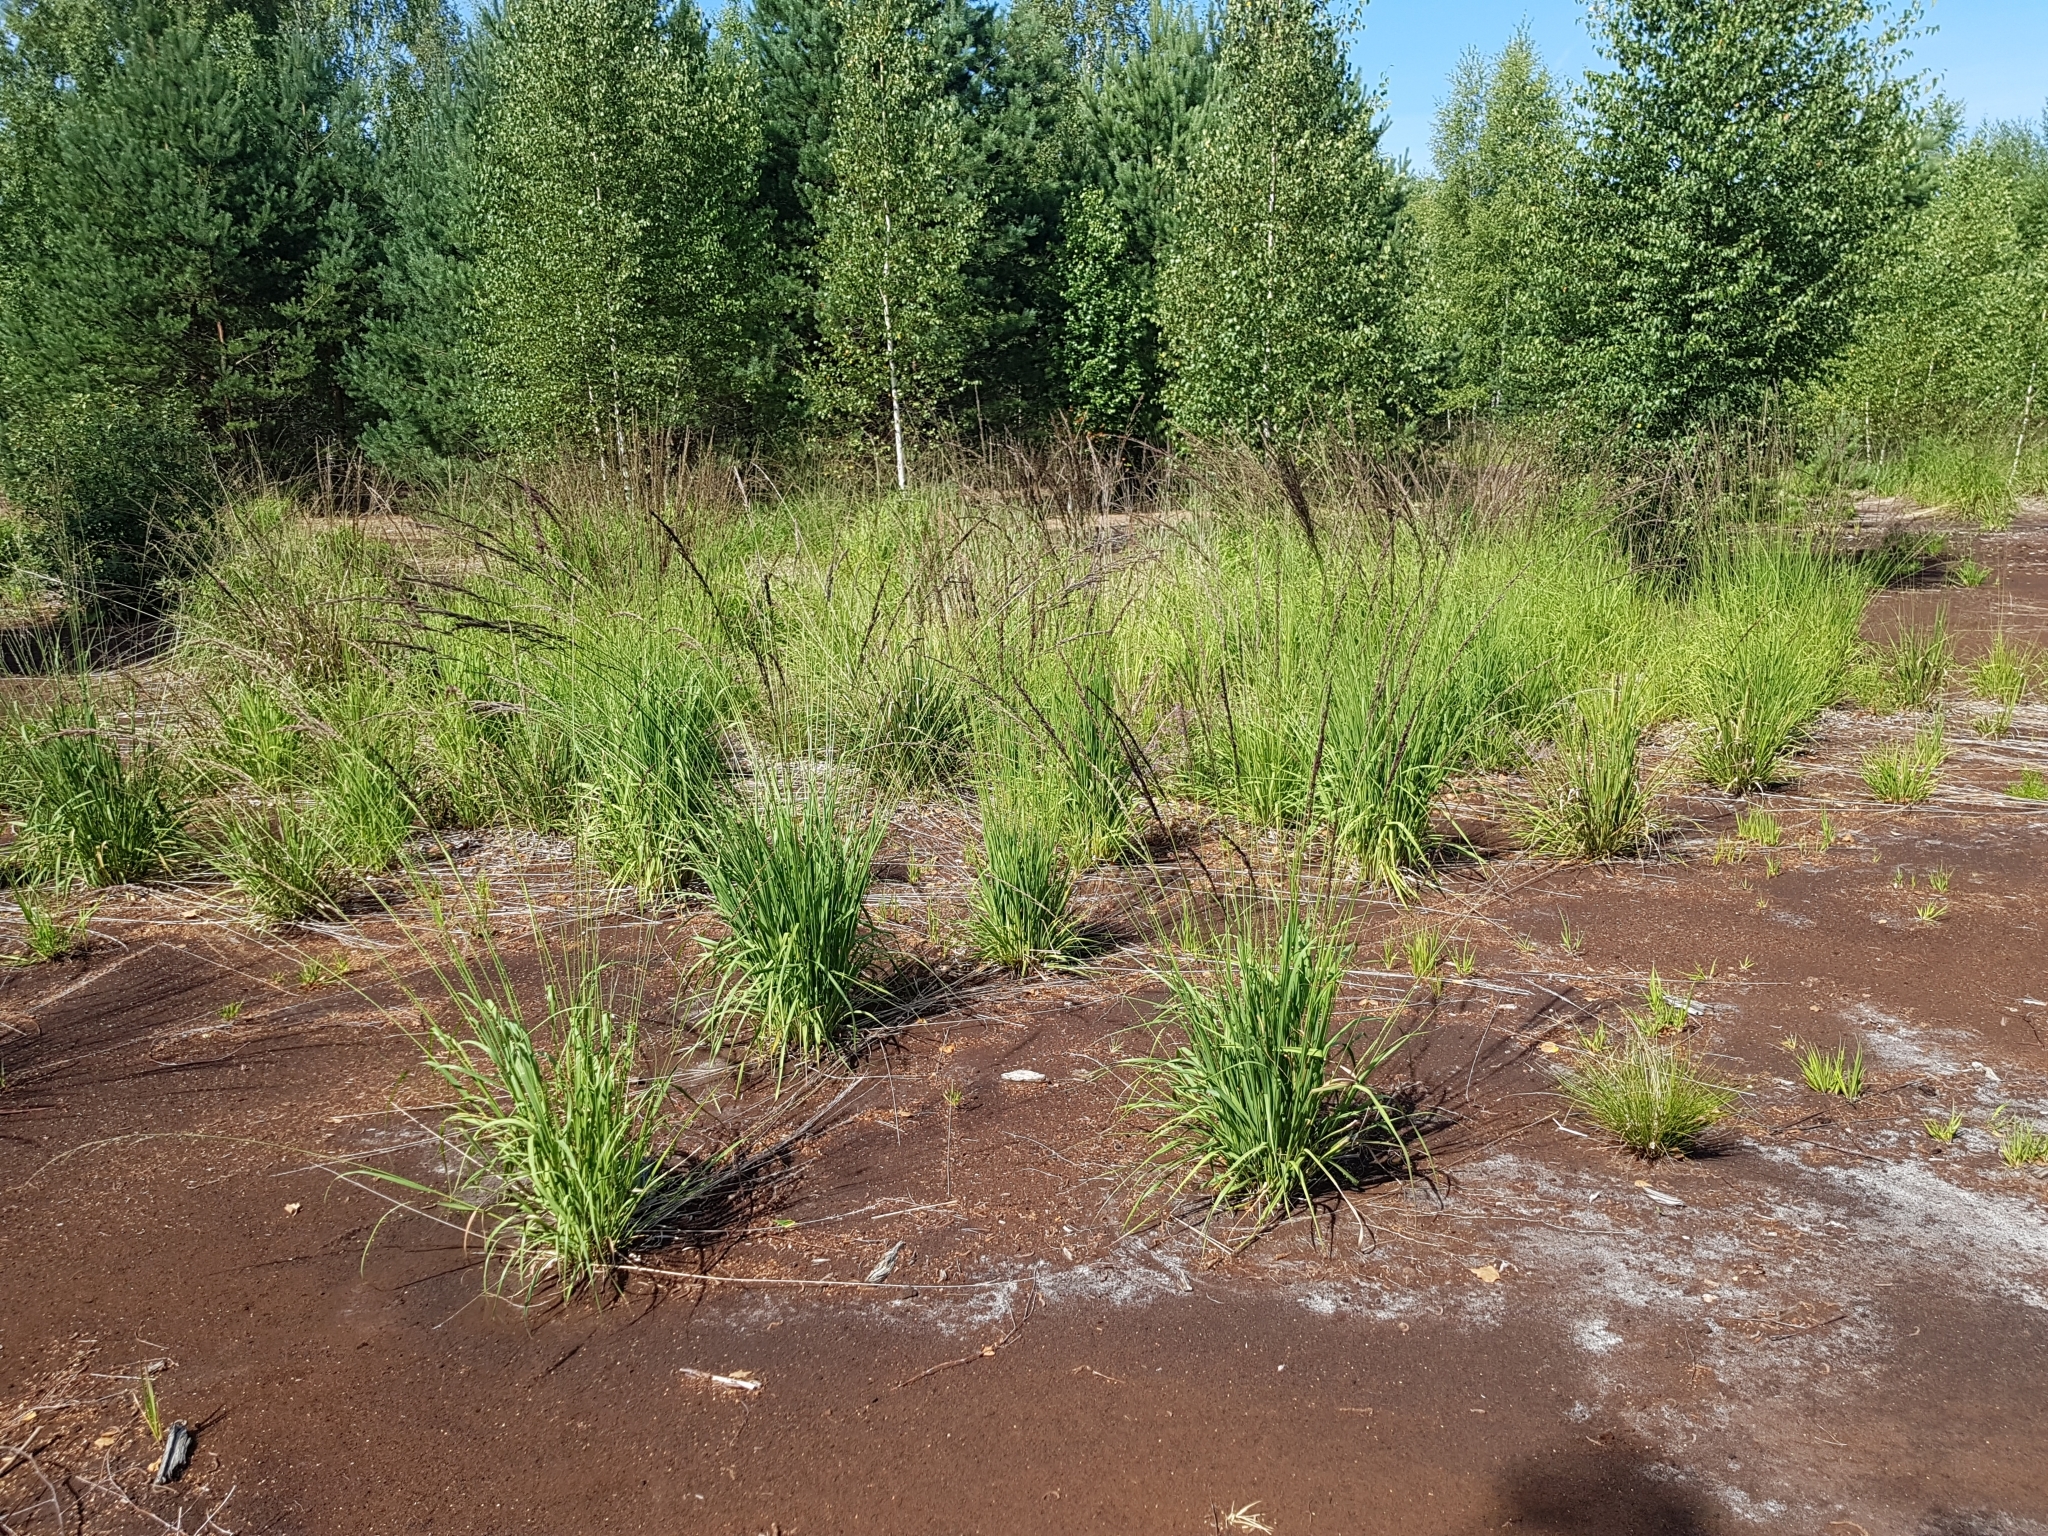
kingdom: Plantae
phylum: Tracheophyta
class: Liliopsida
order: Poales
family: Poaceae
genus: Molinia
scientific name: Molinia caerulea
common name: Purple moor-grass
